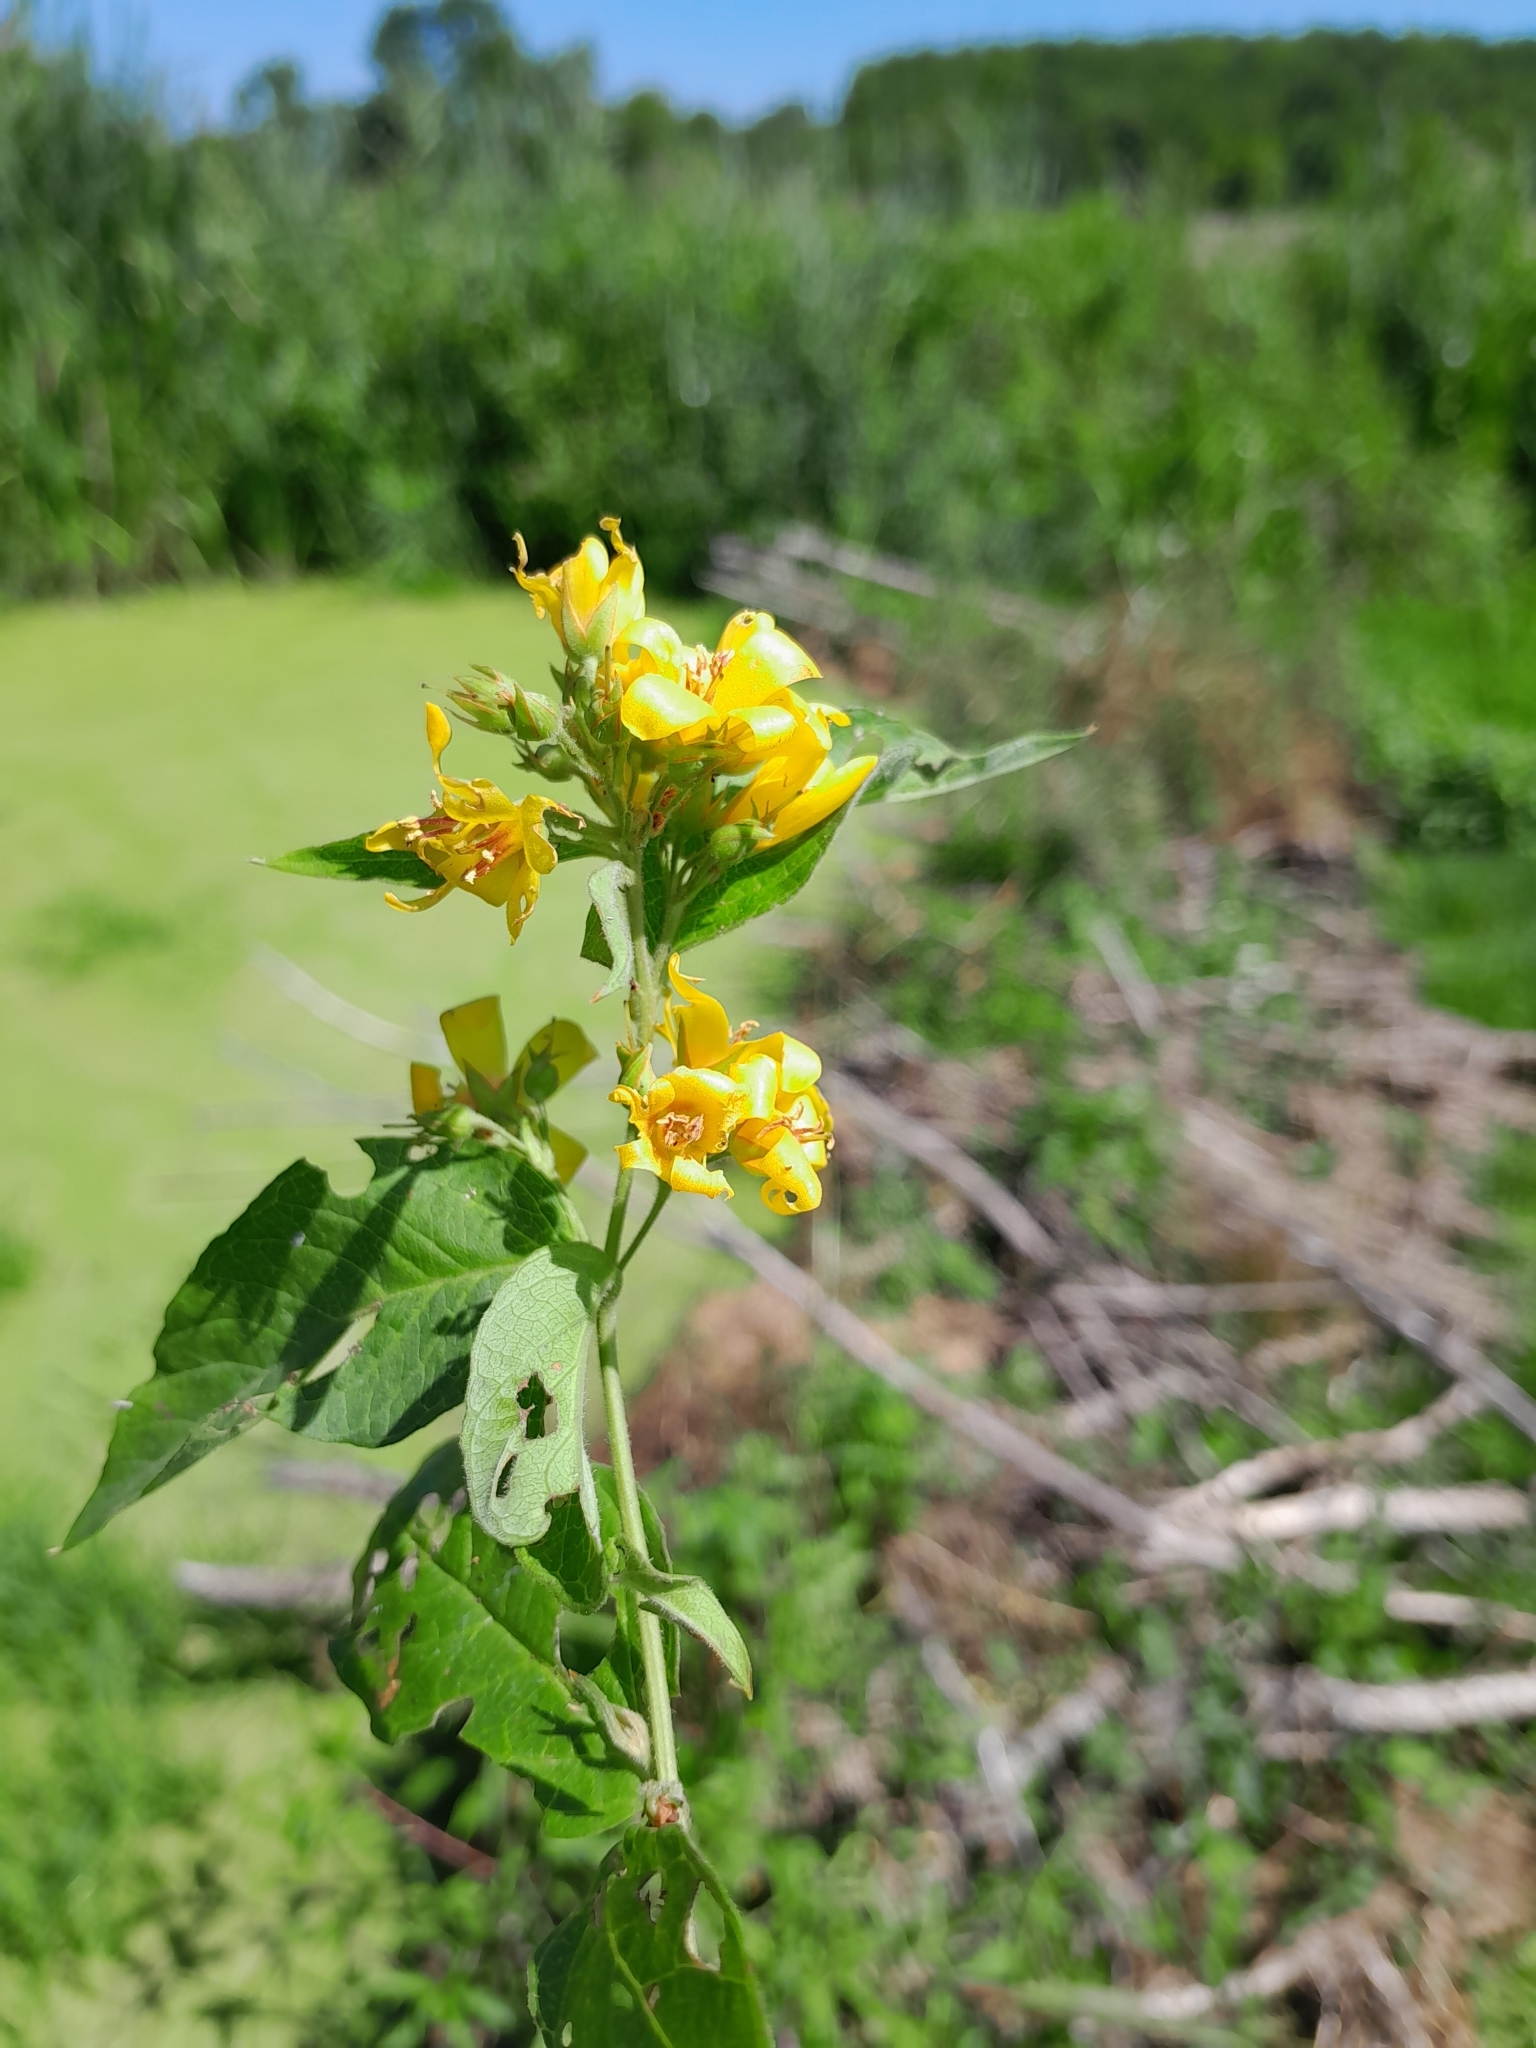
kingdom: Plantae
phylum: Tracheophyta
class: Magnoliopsida
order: Ericales
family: Primulaceae
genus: Lysimachia
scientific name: Lysimachia vulgaris
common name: Yellow loosestrife
